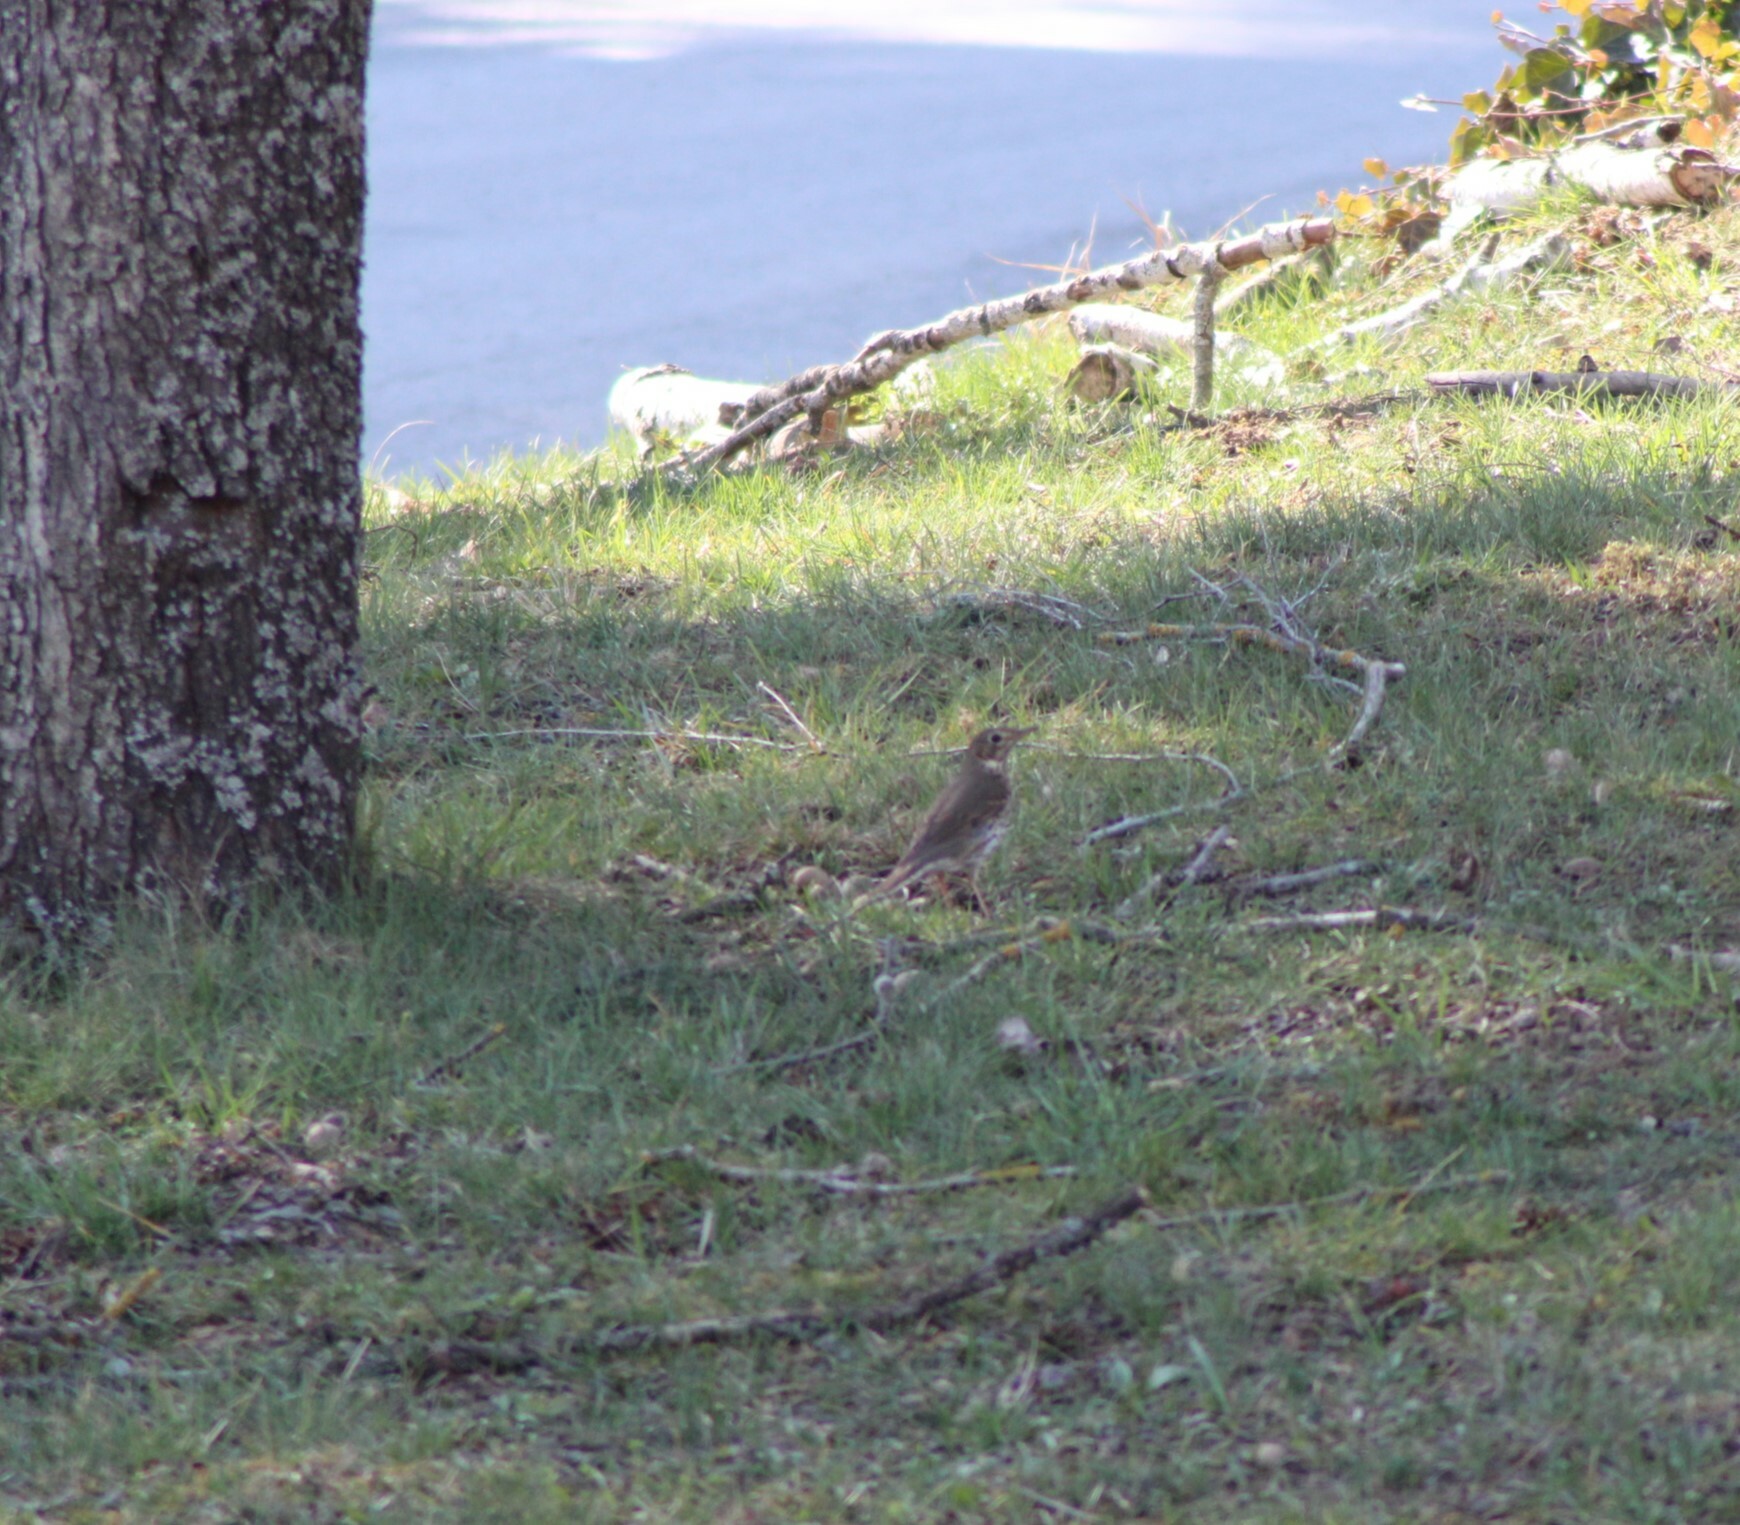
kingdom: Animalia
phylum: Chordata
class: Aves
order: Passeriformes
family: Turdidae
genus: Turdus
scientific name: Turdus viscivorus
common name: Mistle thrush
